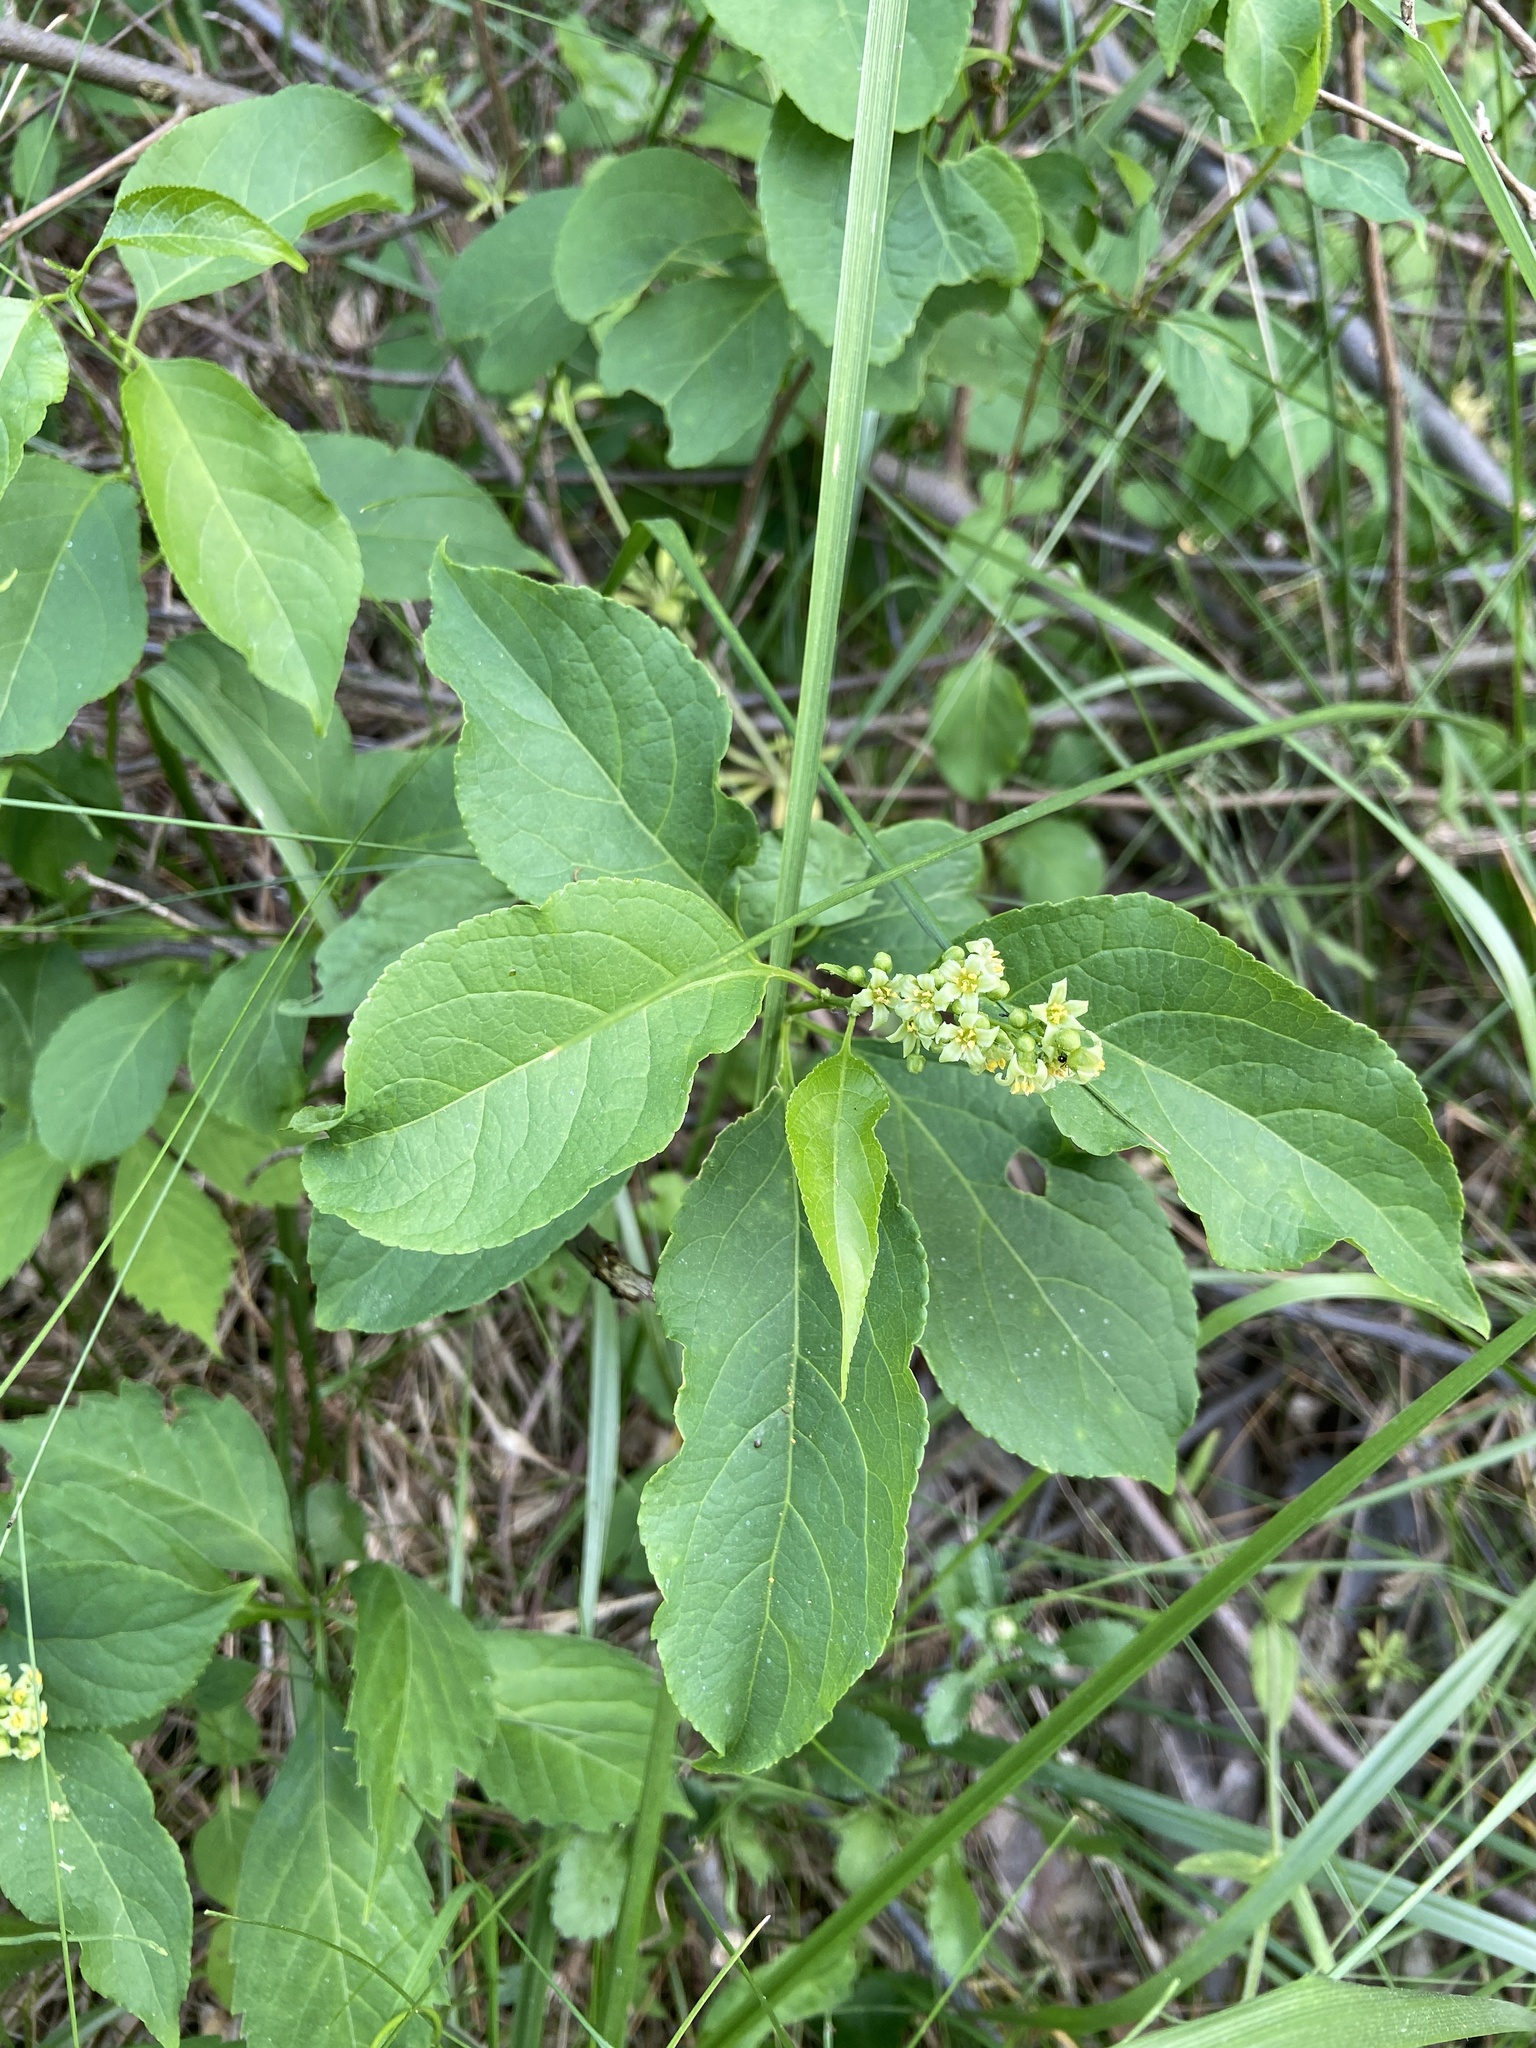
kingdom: Plantae
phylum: Tracheophyta
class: Magnoliopsida
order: Celastrales
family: Celastraceae
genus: Celastrus
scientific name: Celastrus scandens
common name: American bittersweet
